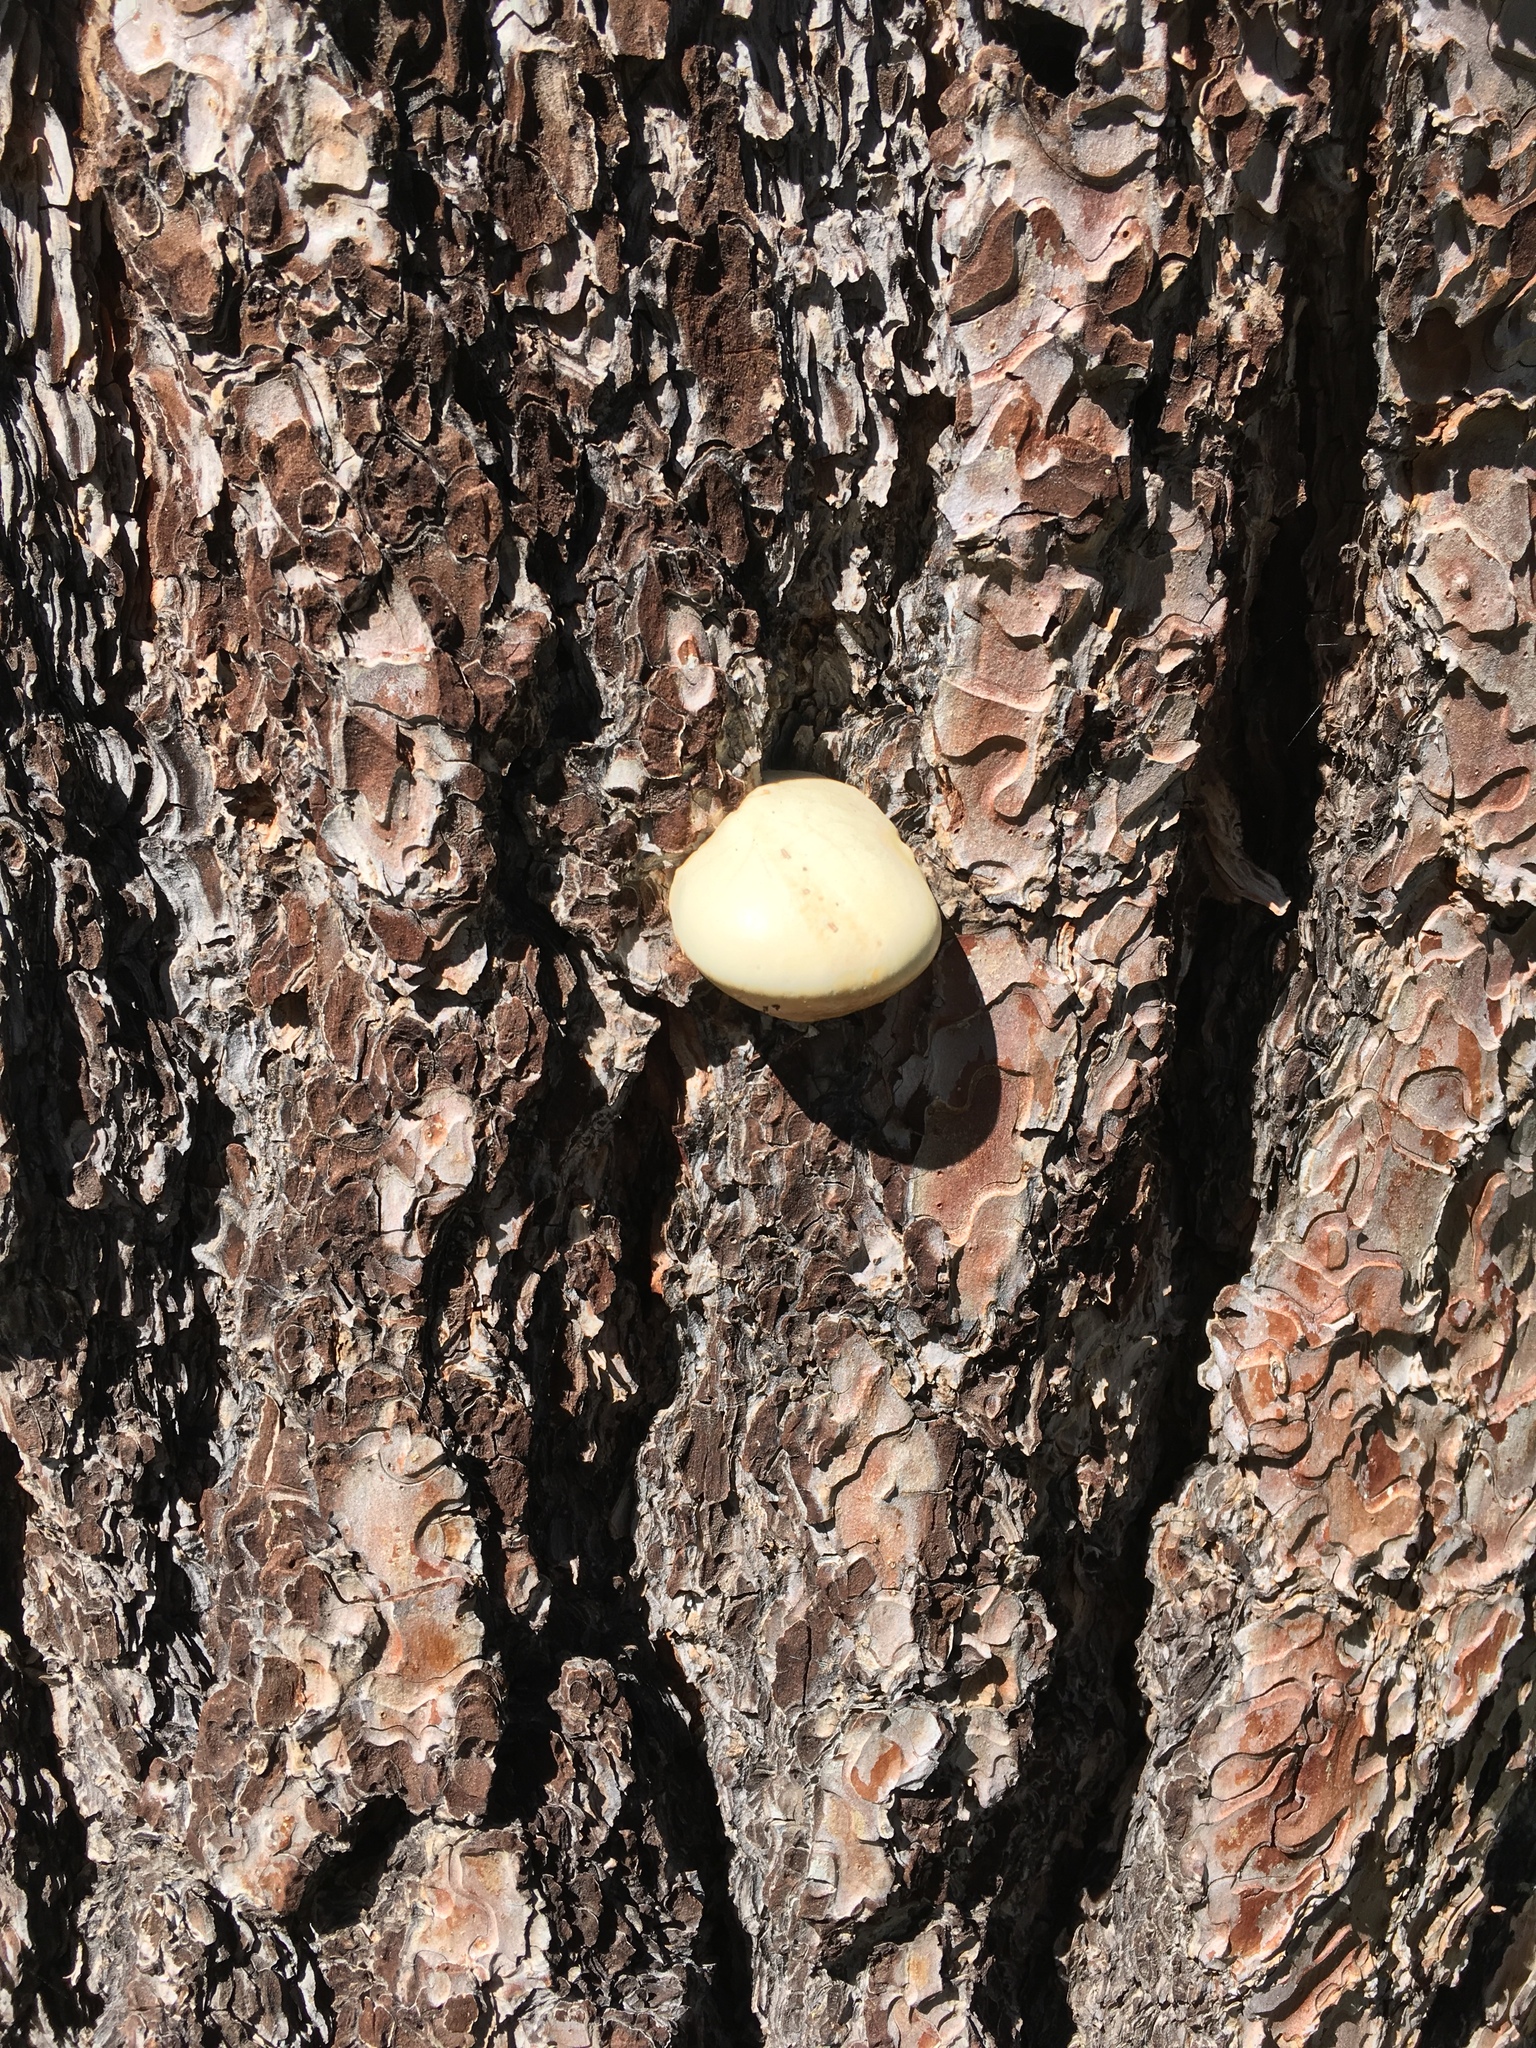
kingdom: Fungi
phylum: Basidiomycota
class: Agaricomycetes
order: Polyporales
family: Polyporaceae
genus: Cryptoporus
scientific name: Cryptoporus volvatus
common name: Veiled polypore
